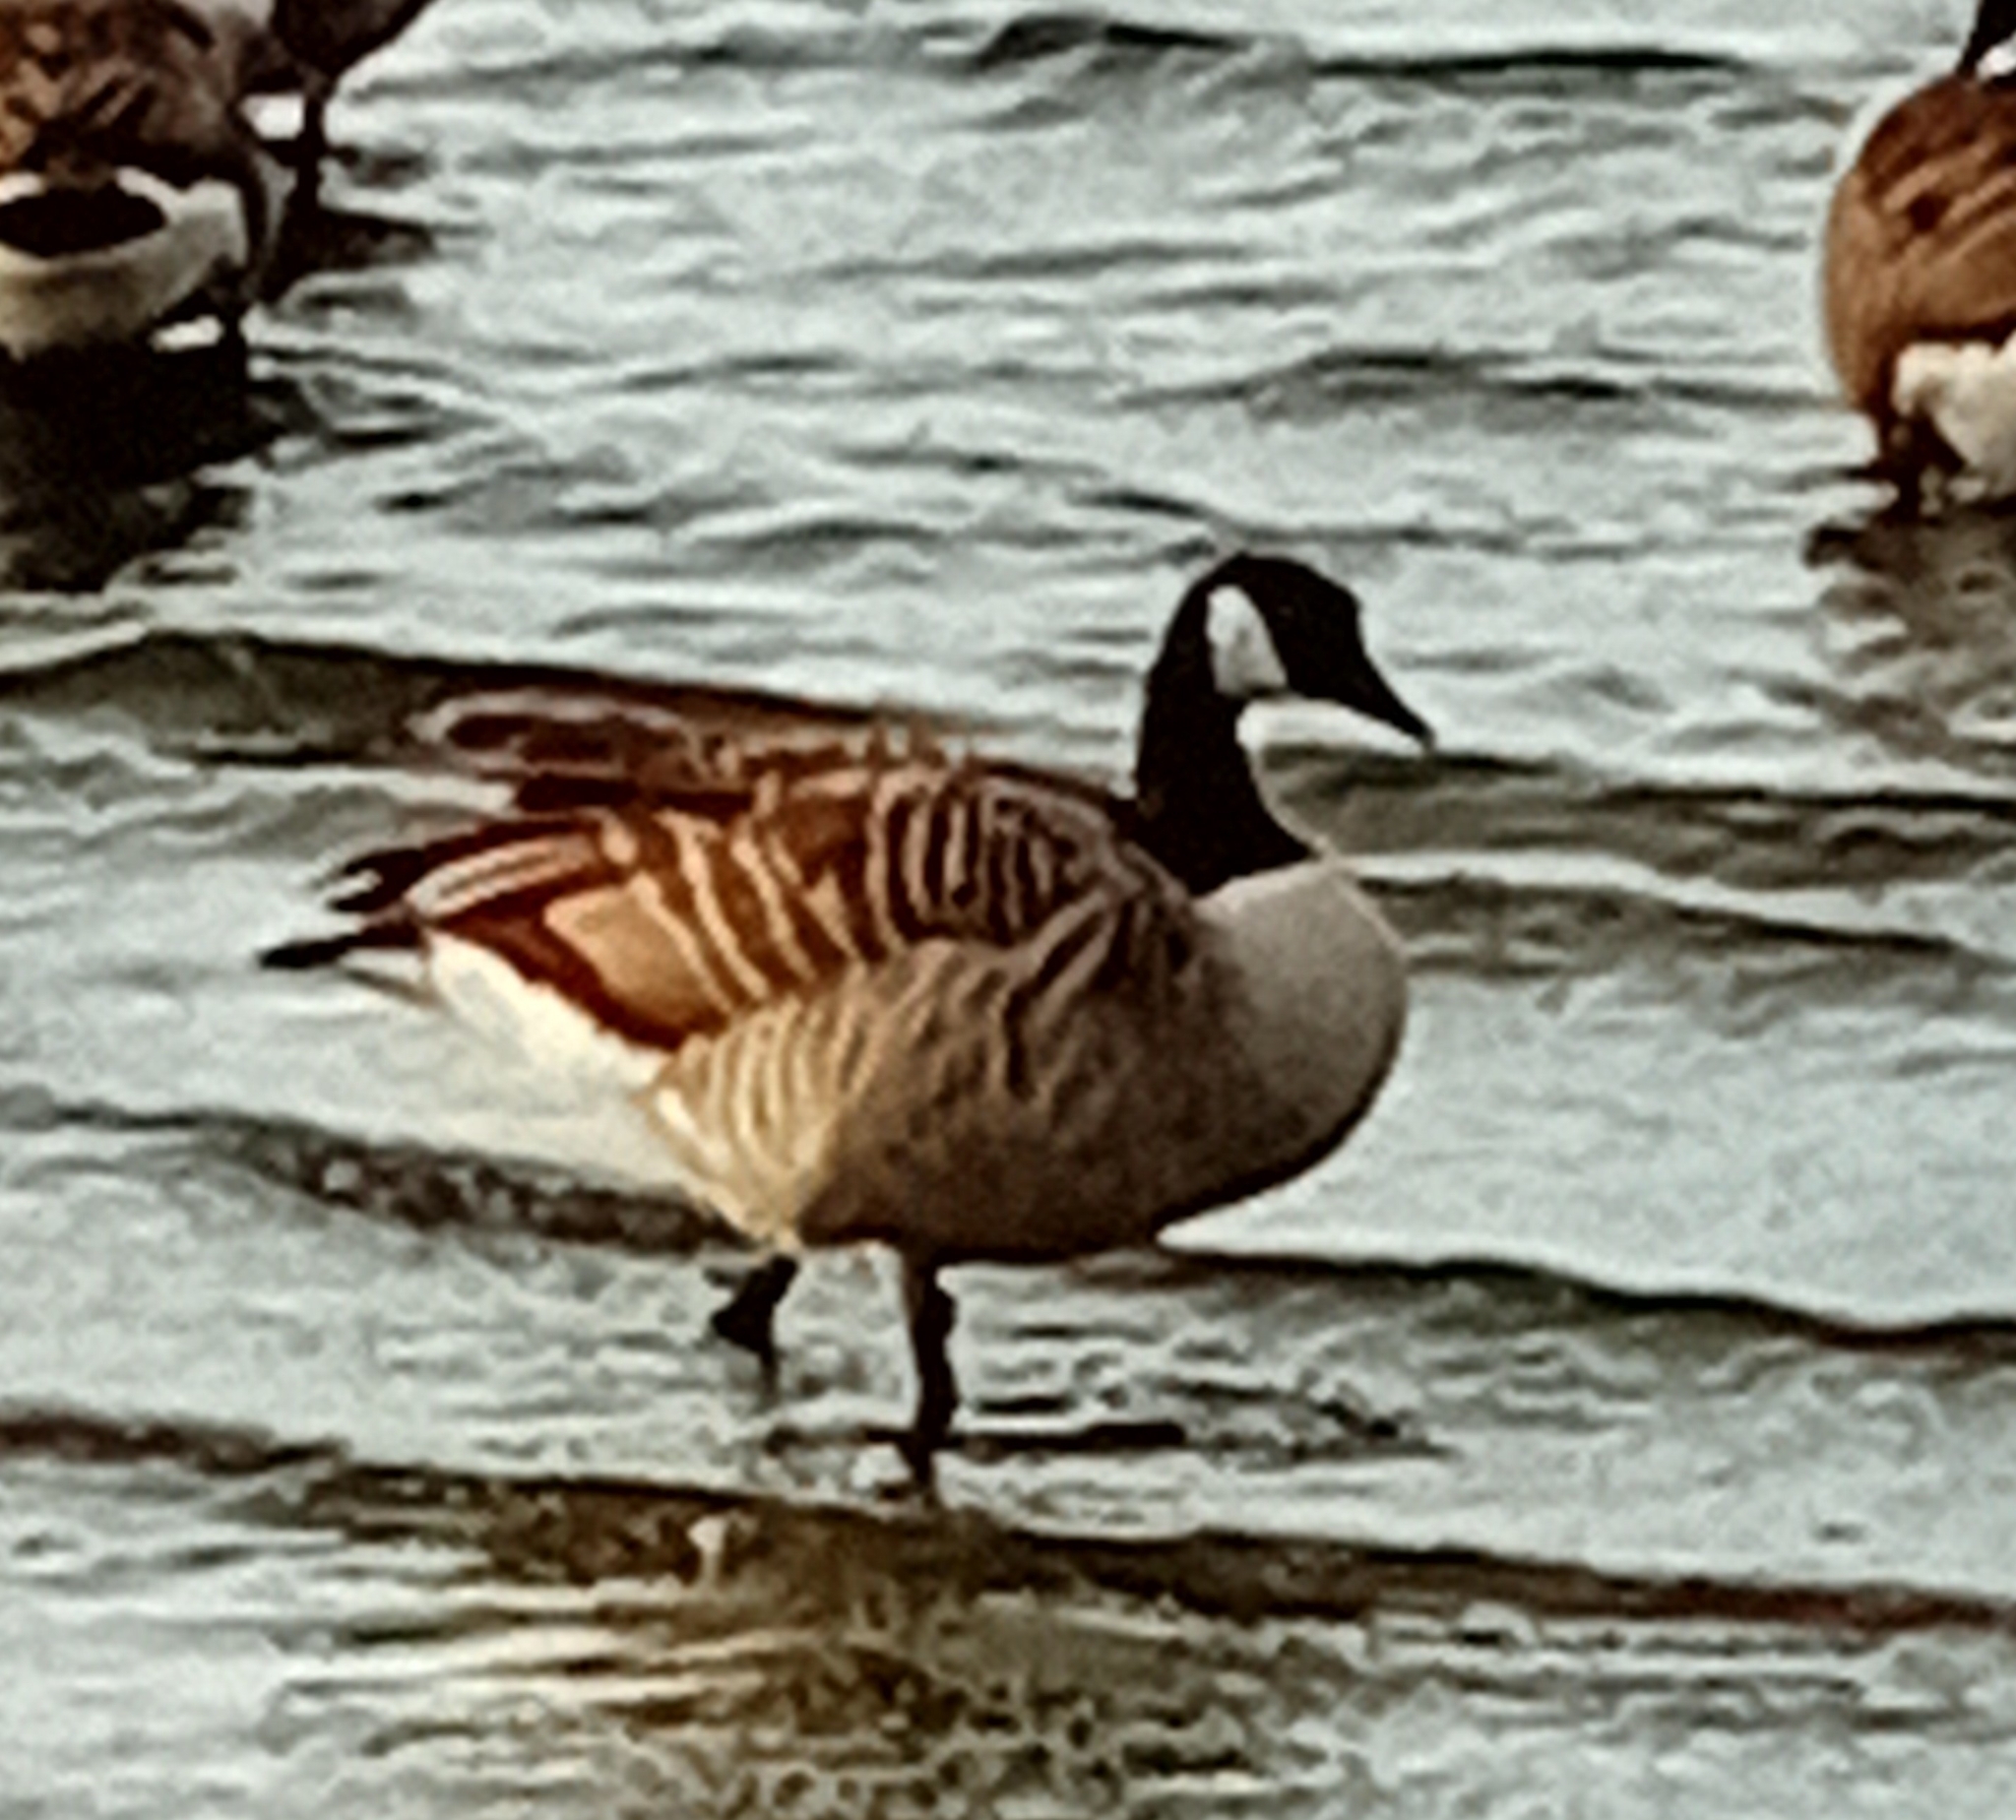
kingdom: Animalia
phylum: Chordata
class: Aves
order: Anseriformes
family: Anatidae
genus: Branta
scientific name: Branta canadensis
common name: Canada goose
